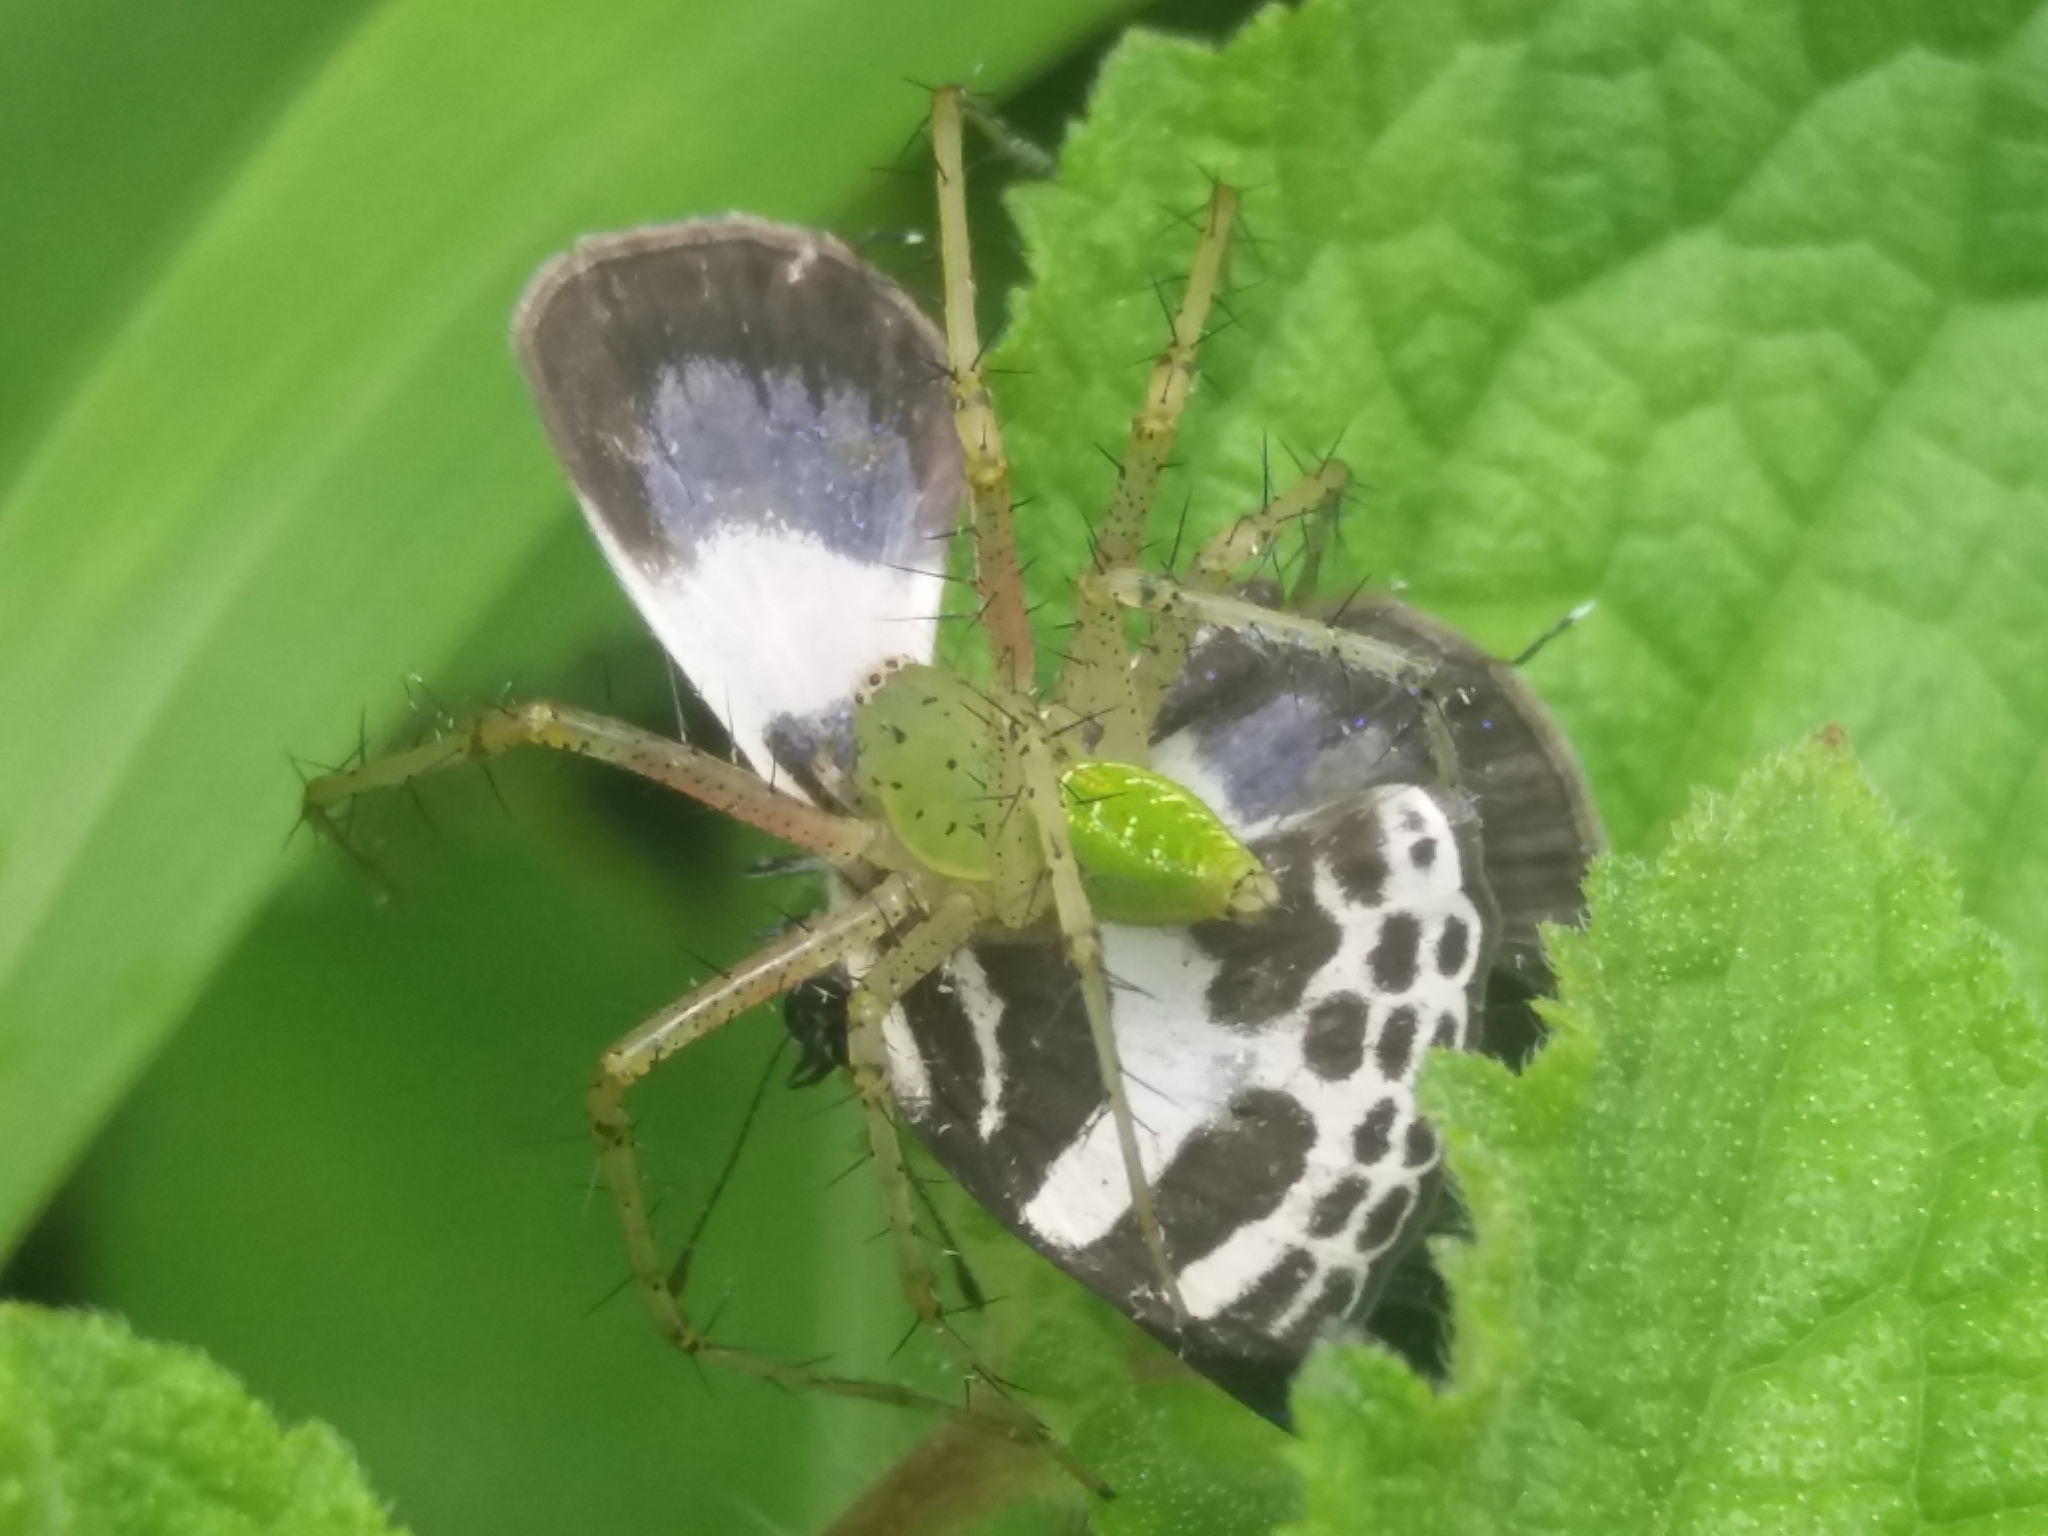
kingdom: Animalia
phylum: Arthropoda
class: Insecta
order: Lepidoptera
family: Lycaenidae
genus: Discolampa
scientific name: Discolampa ethion
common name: Banded blue pierrot
